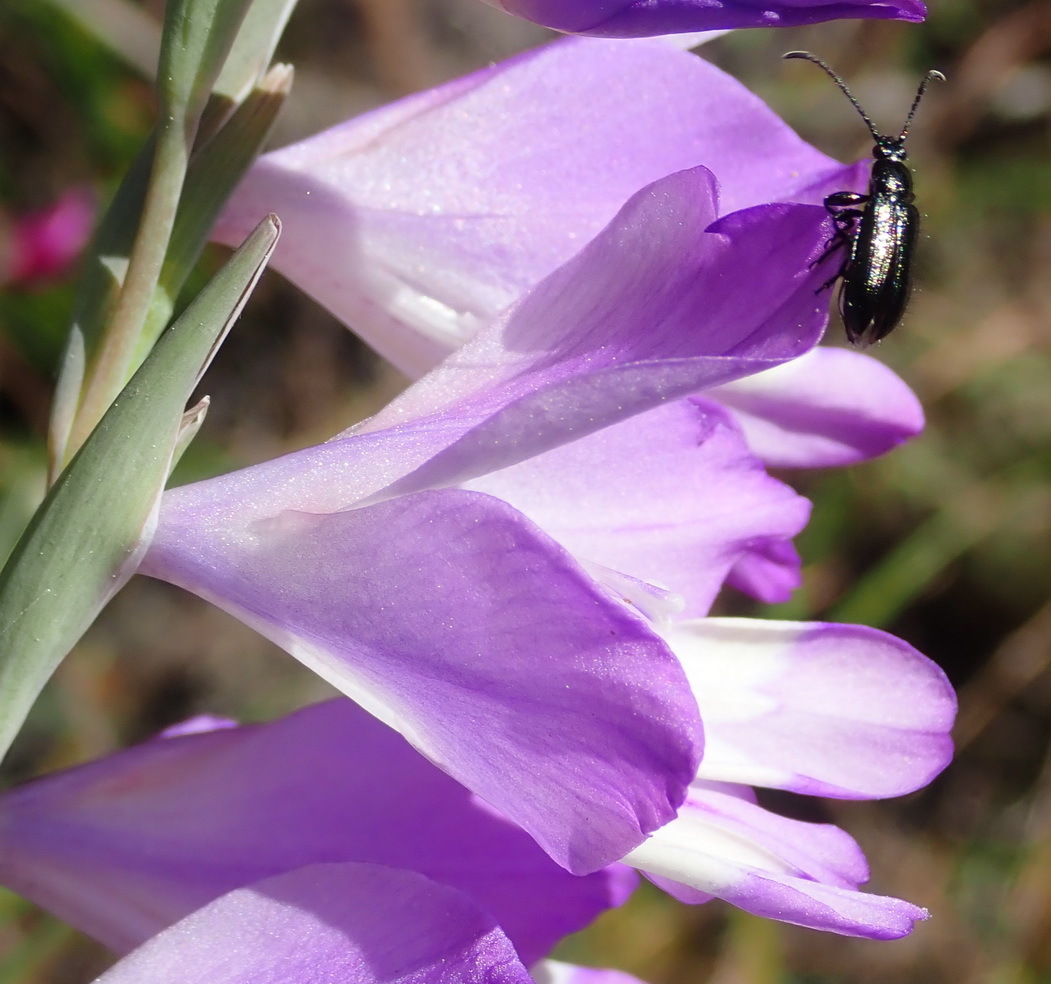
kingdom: Plantae
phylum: Tracheophyta
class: Liliopsida
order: Asparagales
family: Iridaceae
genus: Gladiolus
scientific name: Gladiolus rogersii
